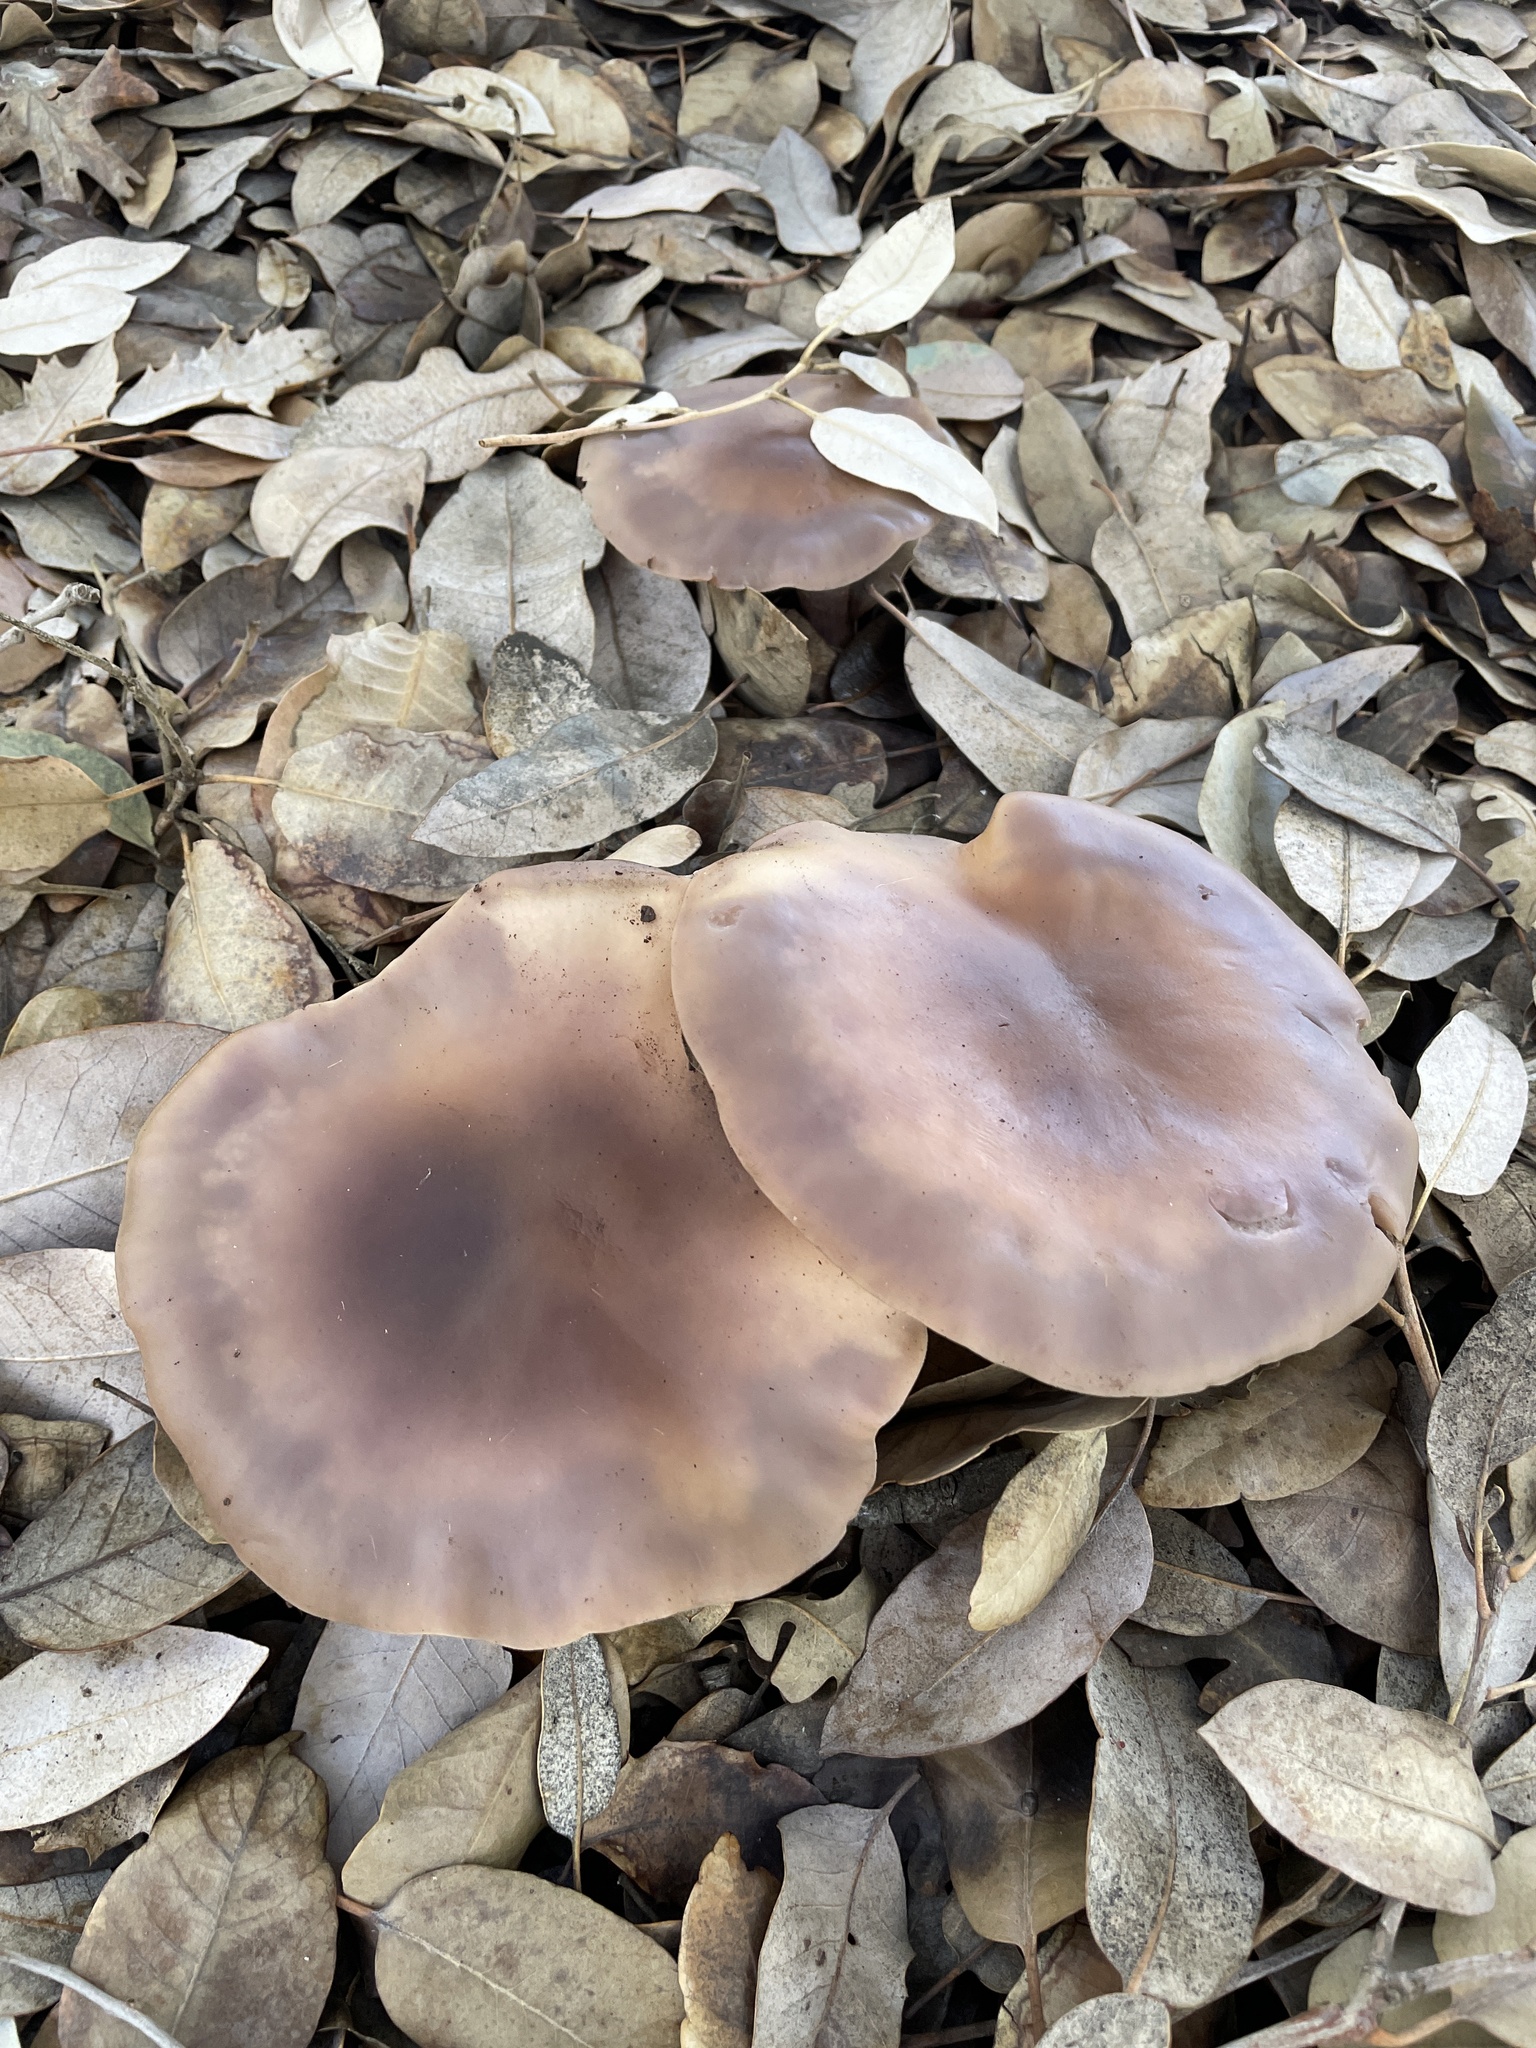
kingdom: Fungi
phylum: Basidiomycota
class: Agaricomycetes
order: Agaricales
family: Tricholomataceae
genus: Collybia
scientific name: Collybia
